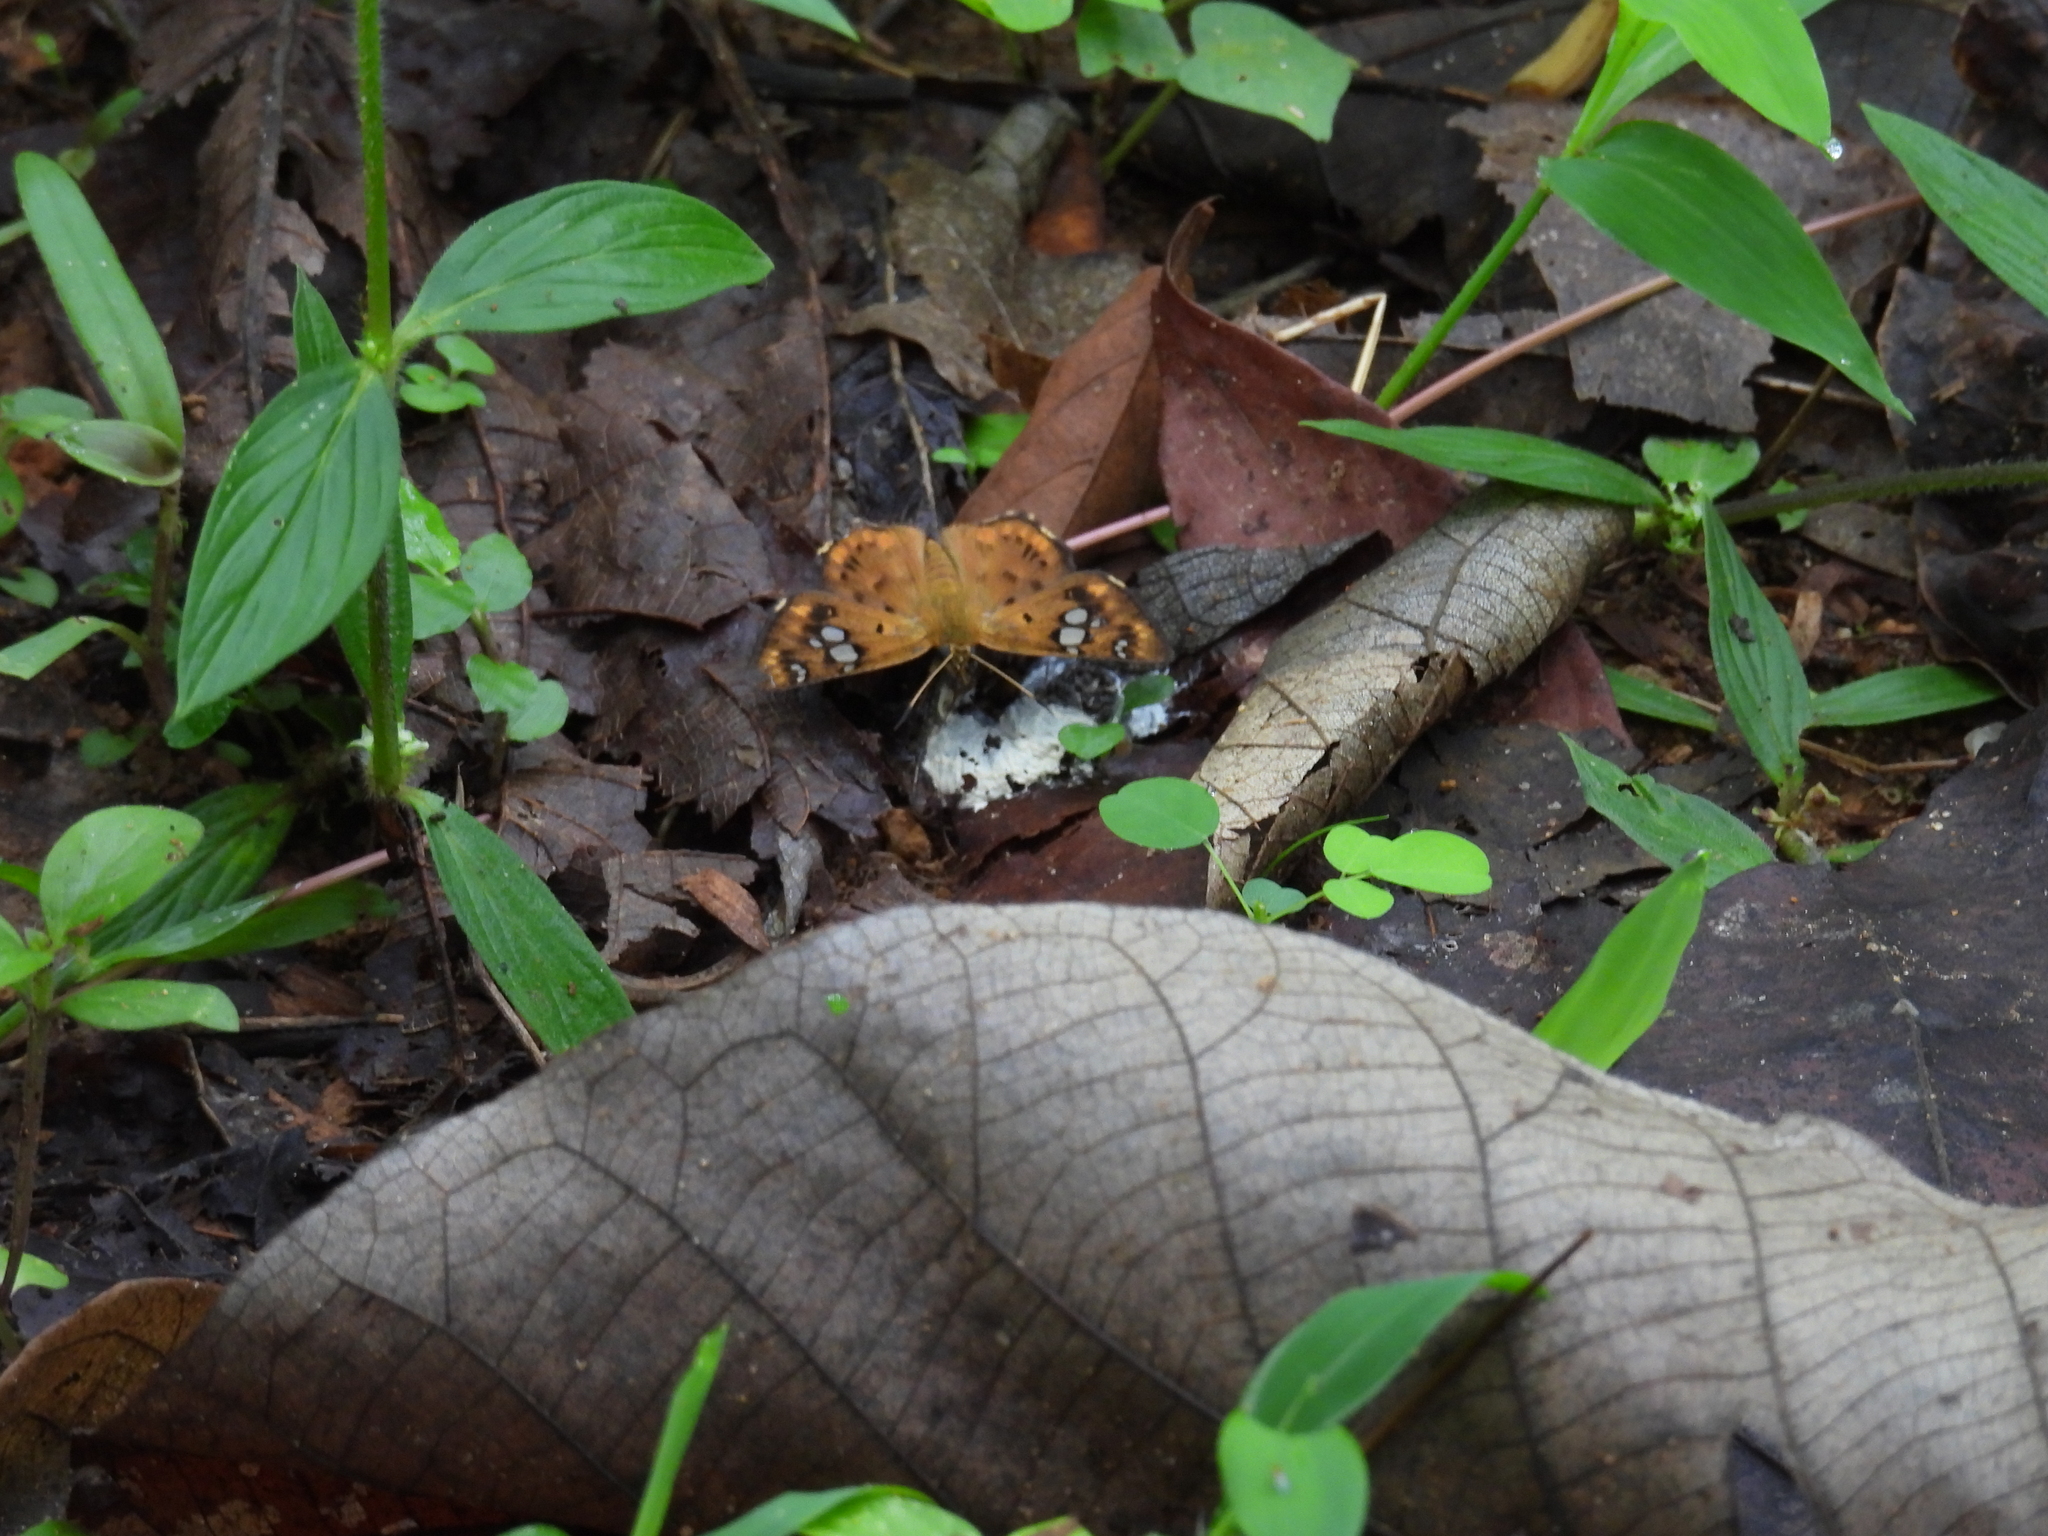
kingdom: Animalia
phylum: Arthropoda
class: Insecta
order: Lepidoptera
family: Hesperiidae
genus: Coladenia
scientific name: Coladenia
